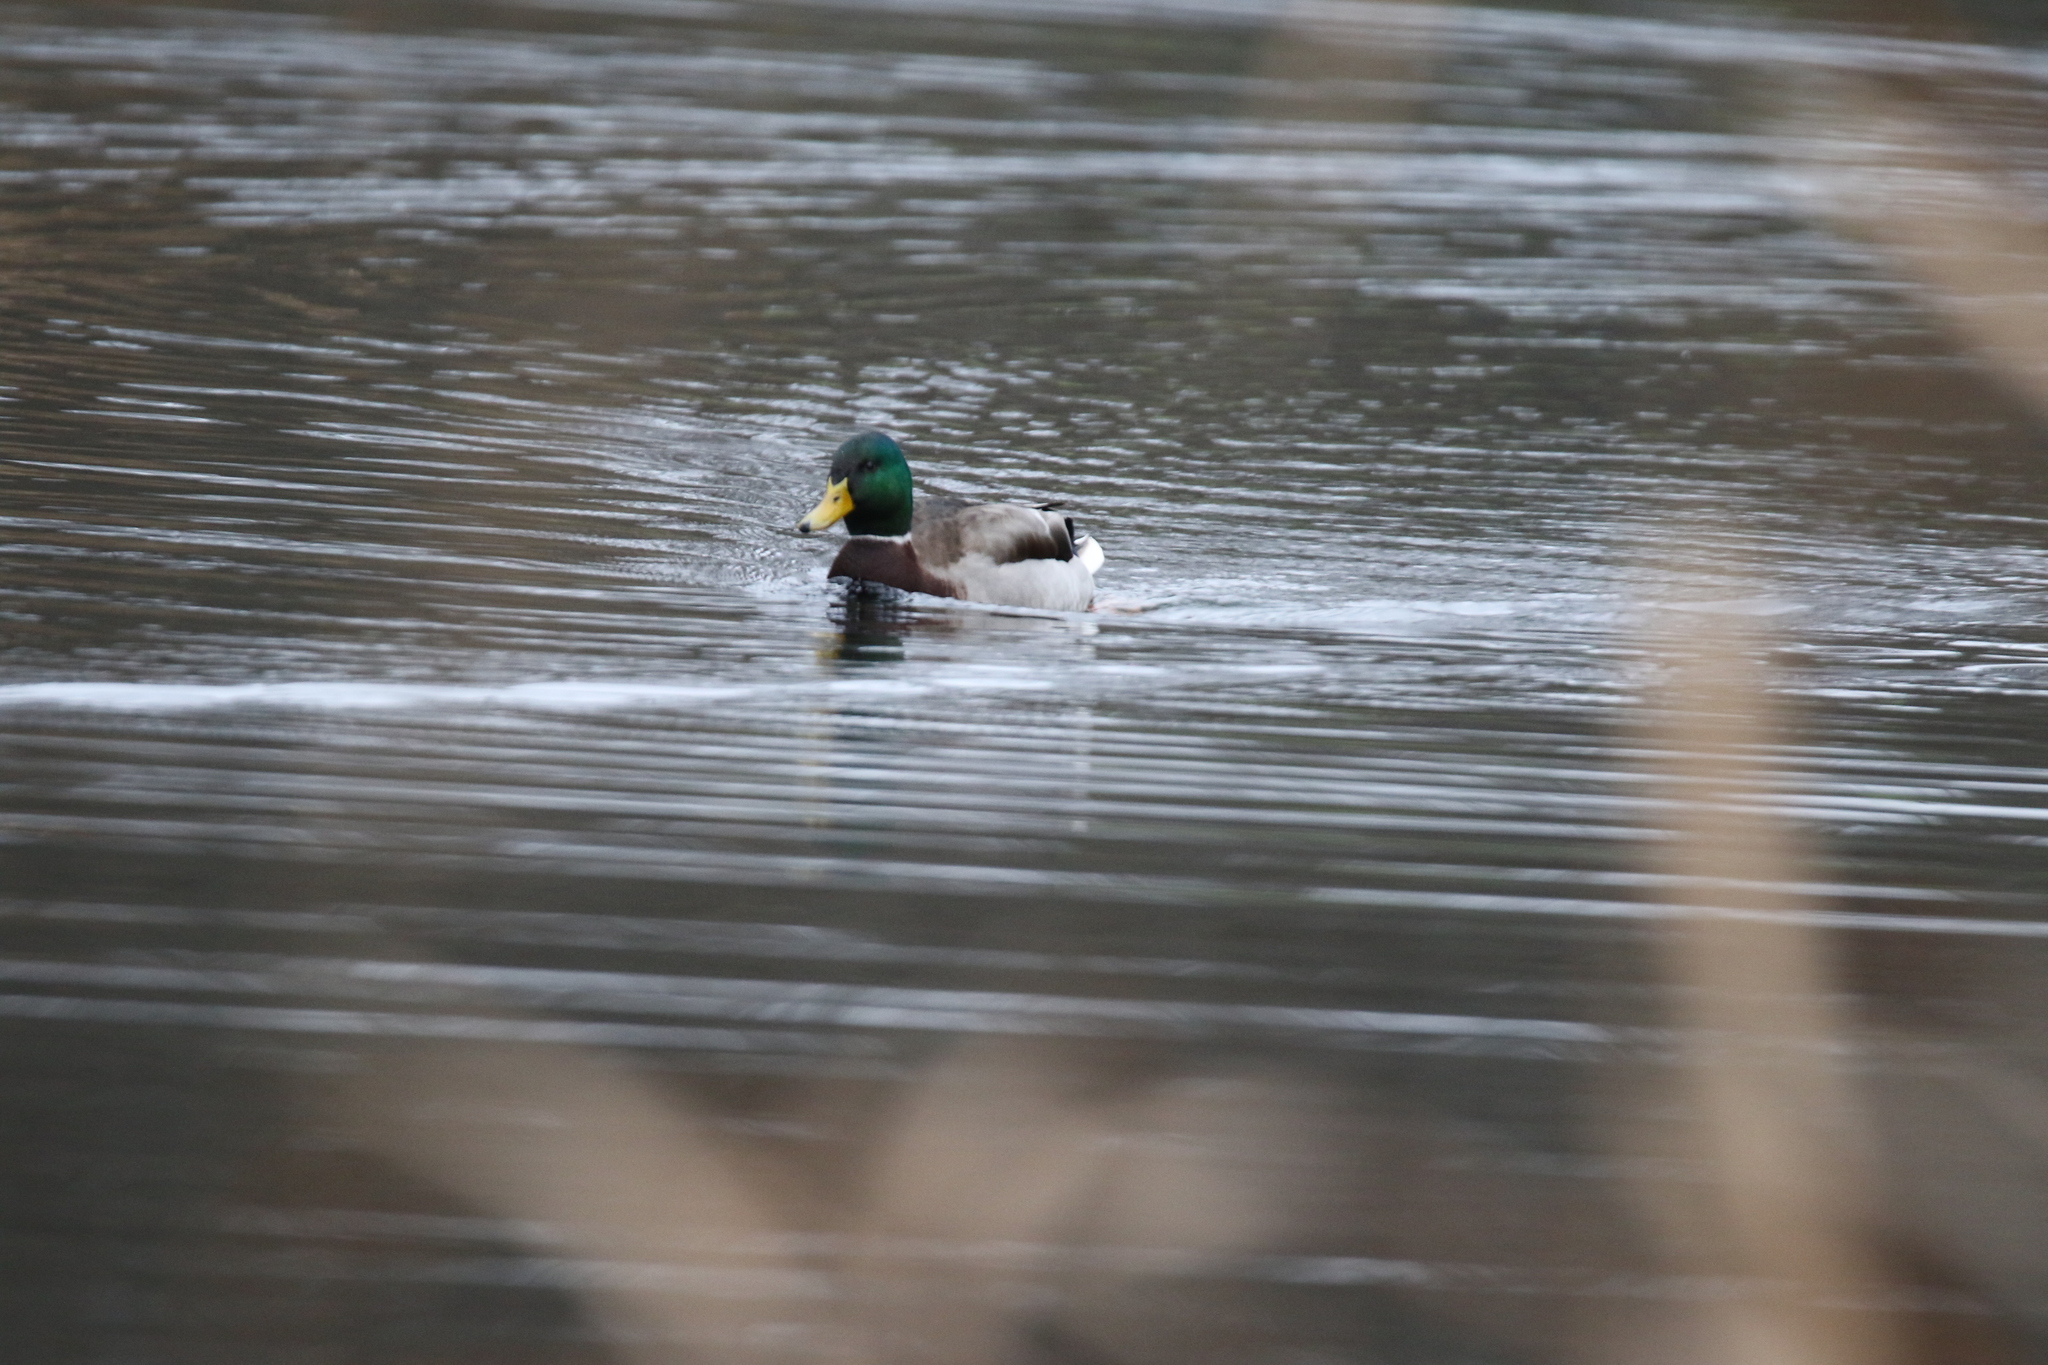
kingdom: Animalia
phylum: Chordata
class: Aves
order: Anseriformes
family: Anatidae
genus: Anas
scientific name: Anas platyrhynchos
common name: Mallard
